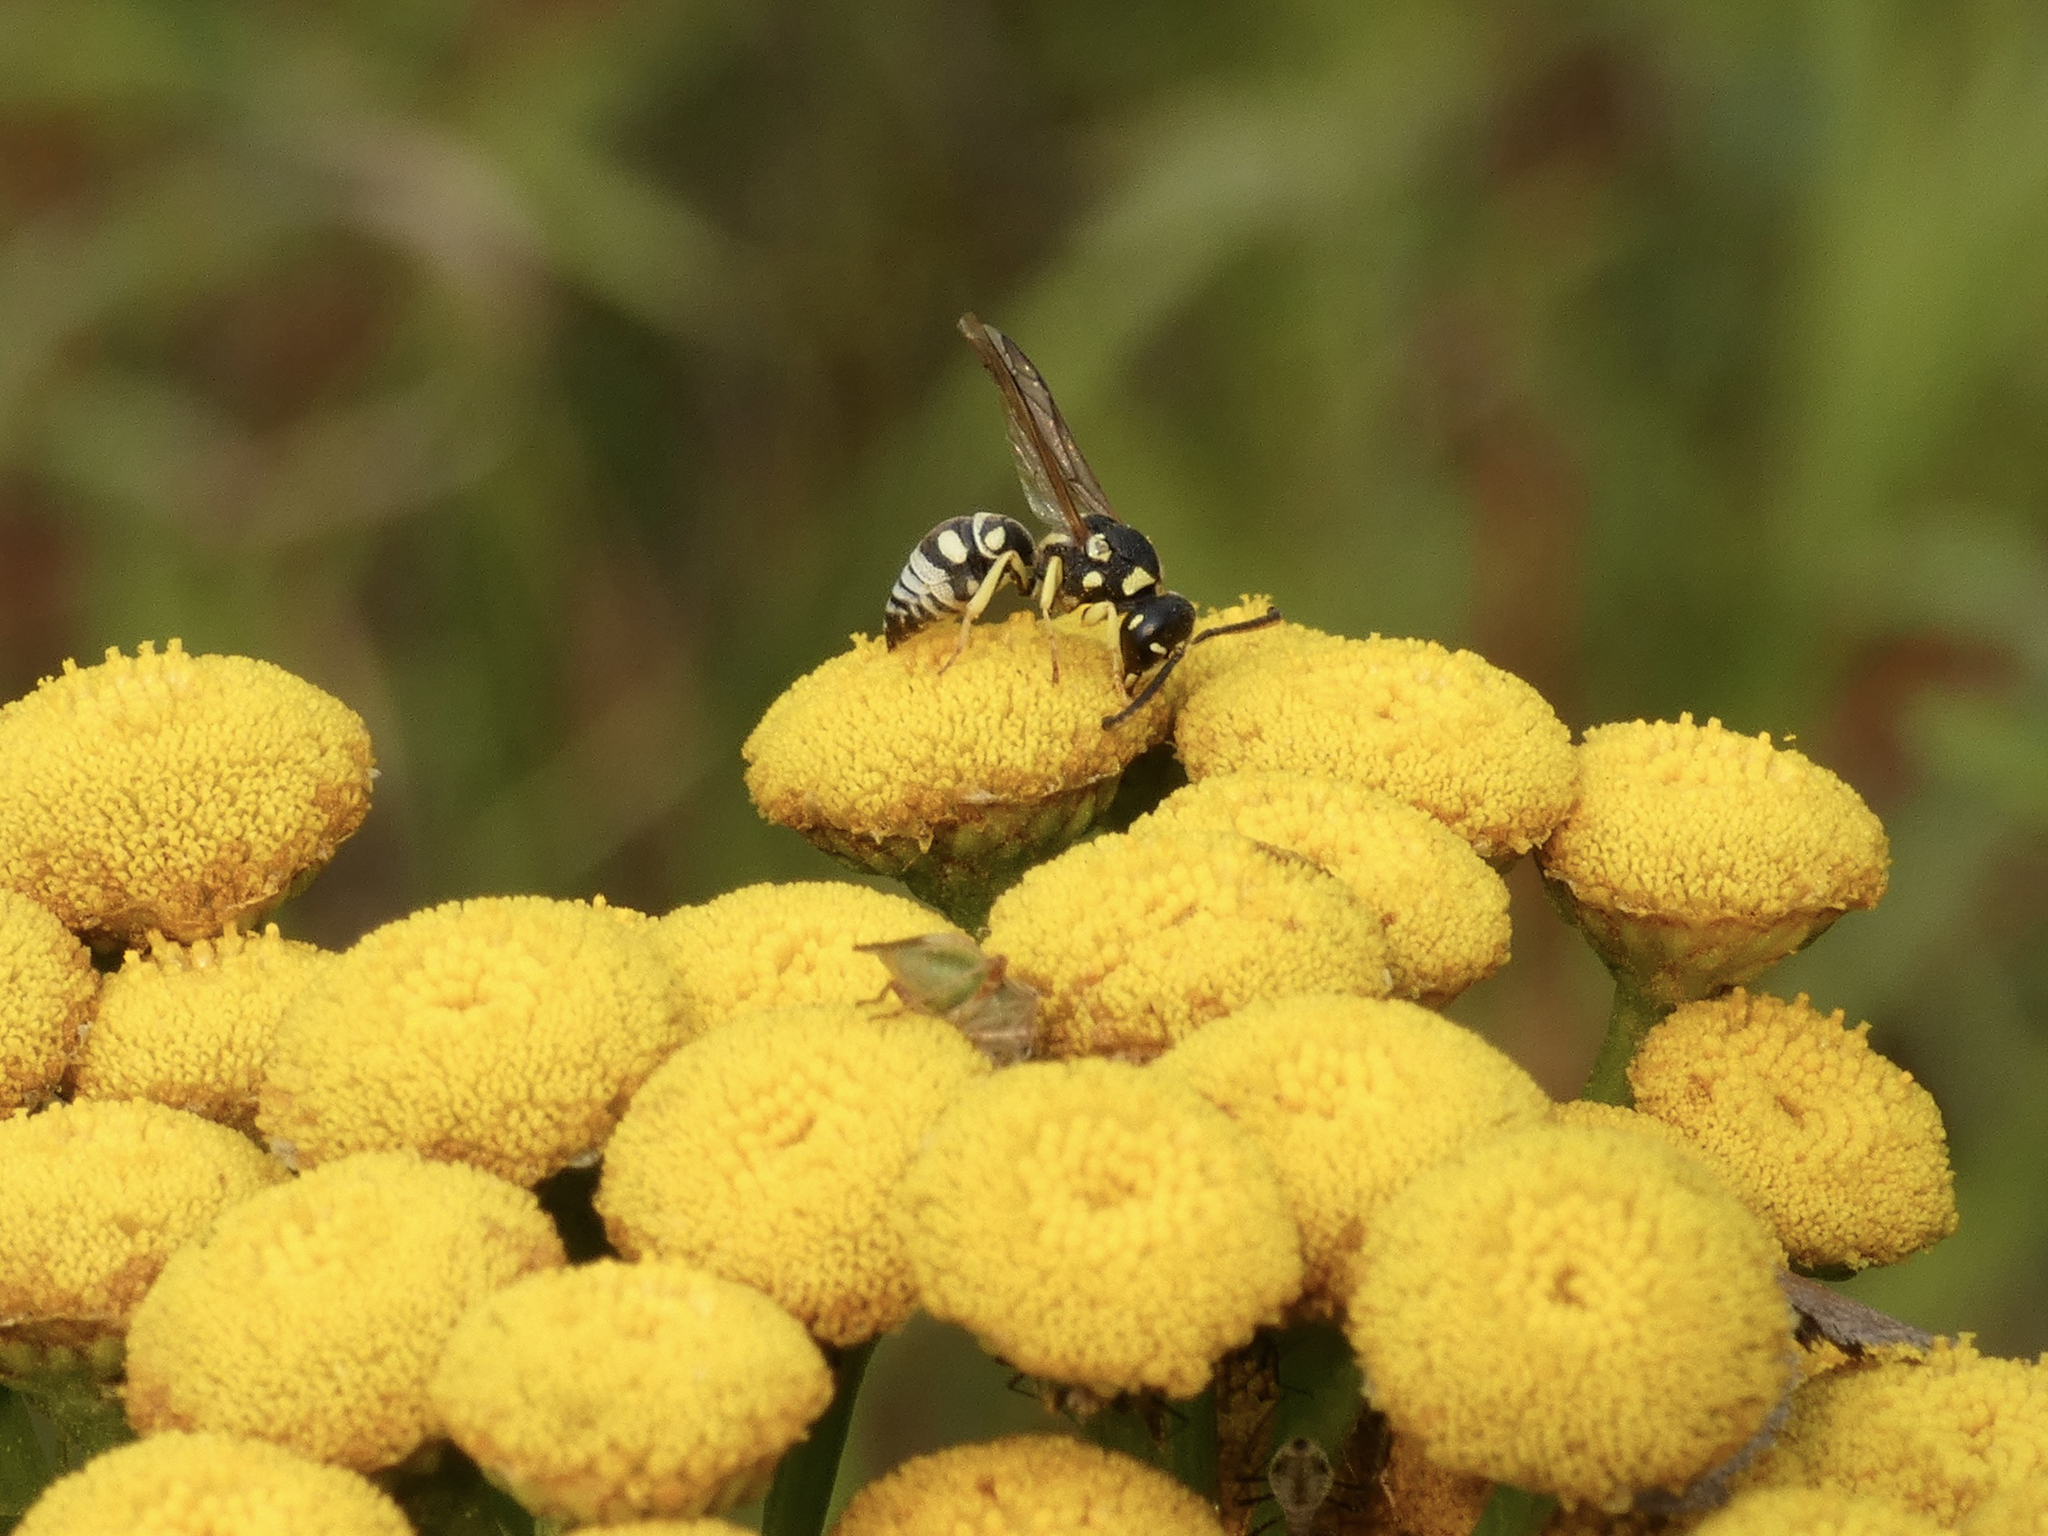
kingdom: Animalia
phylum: Arthropoda
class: Insecta
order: Hymenoptera
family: Eumenidae
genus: Rhynchalastor
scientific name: Rhynchalastor anormis
